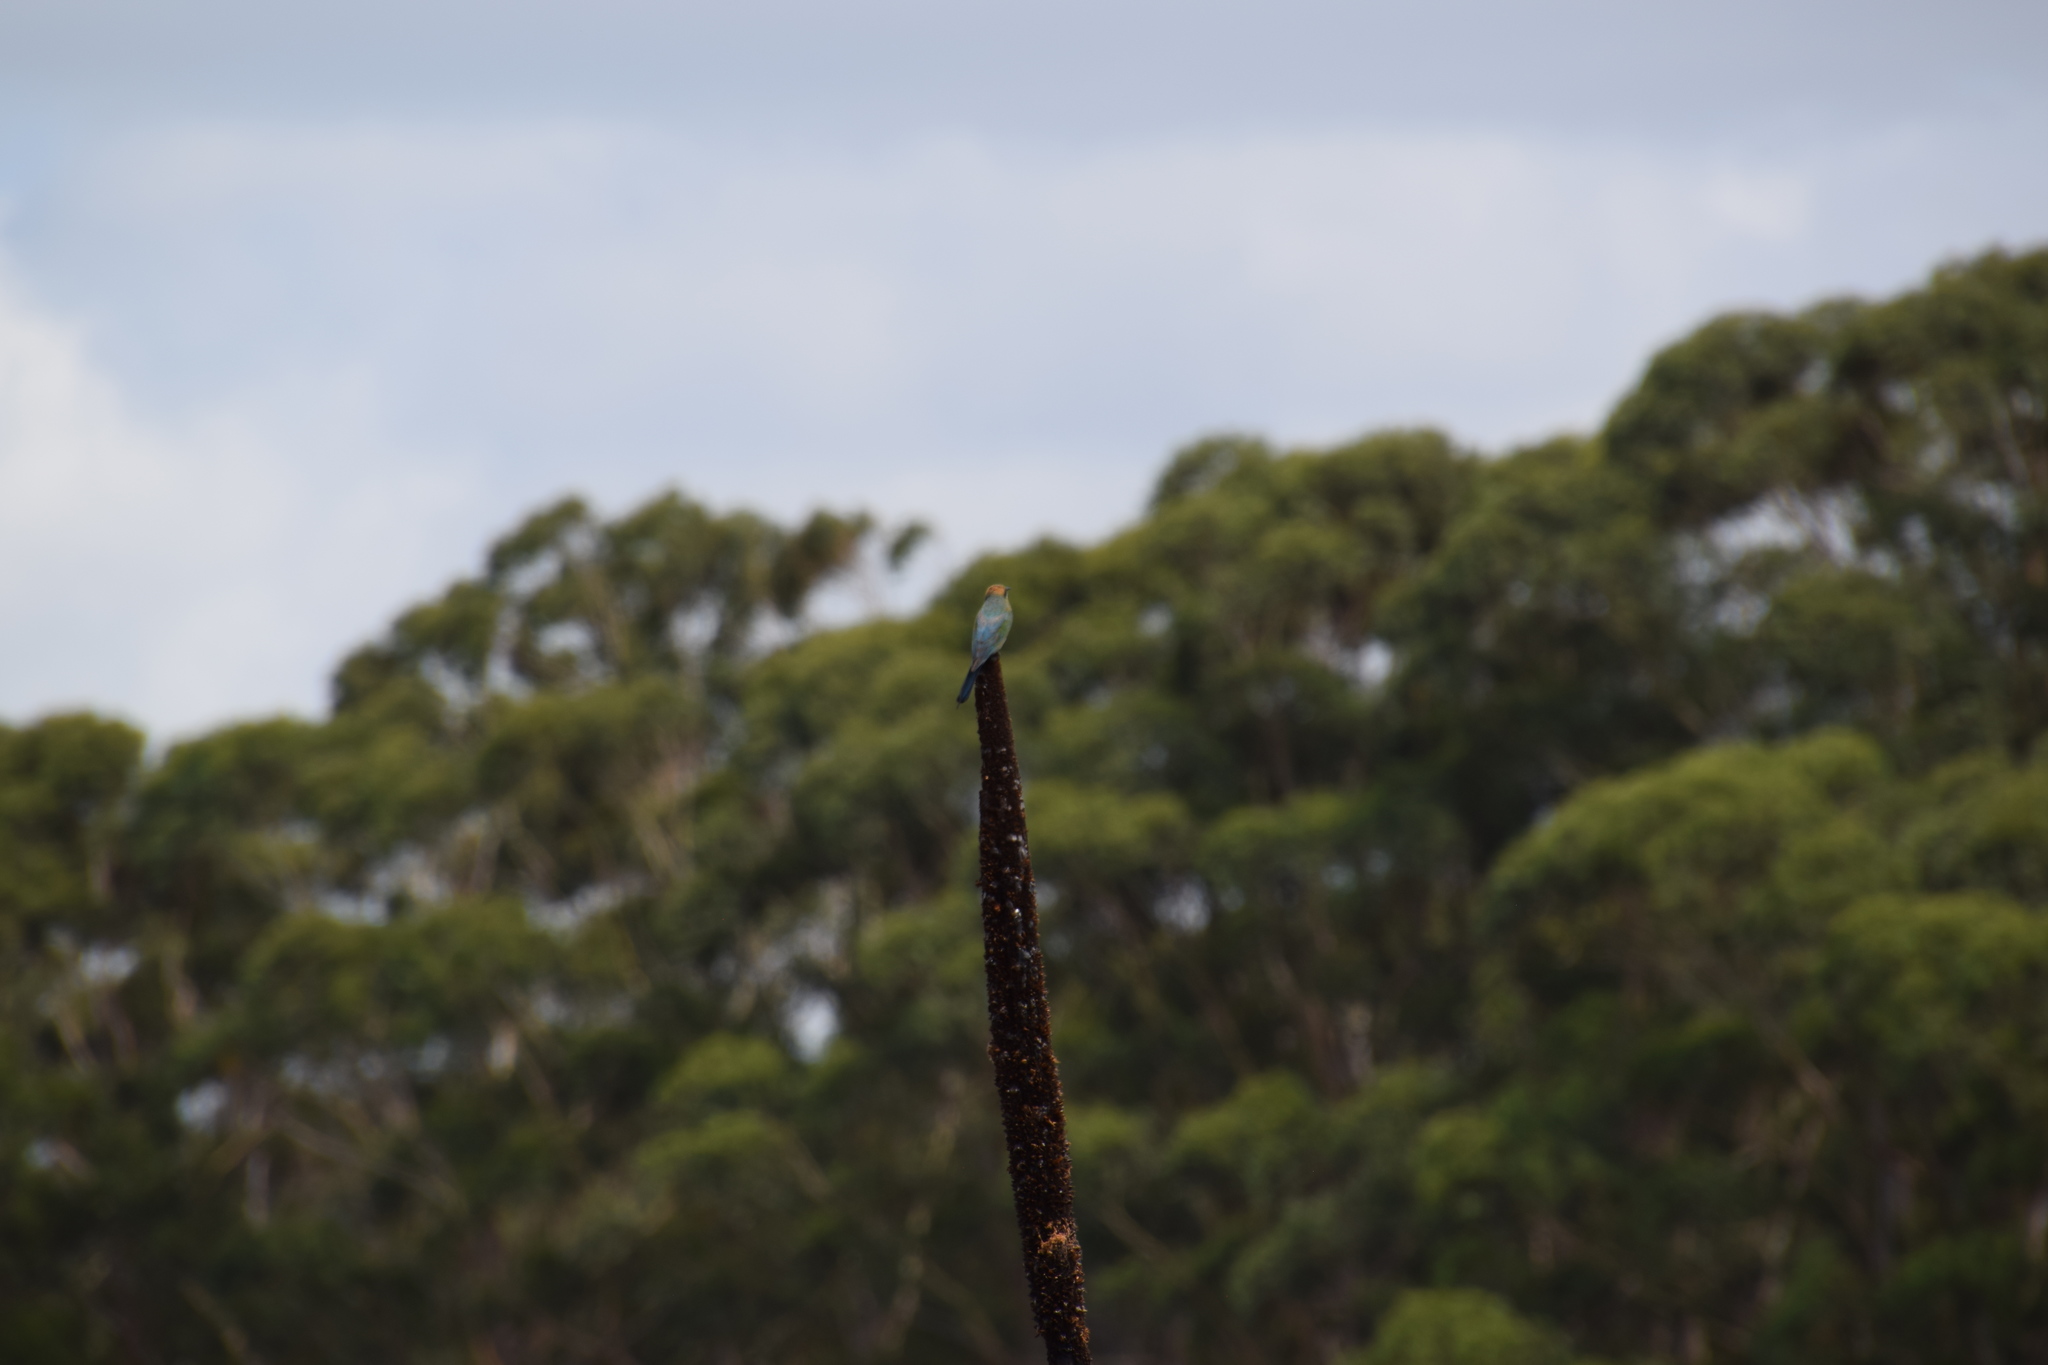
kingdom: Animalia
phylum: Chordata
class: Aves
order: Coraciiformes
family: Meropidae
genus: Merops
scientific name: Merops ornatus
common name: Rainbow bee-eater
